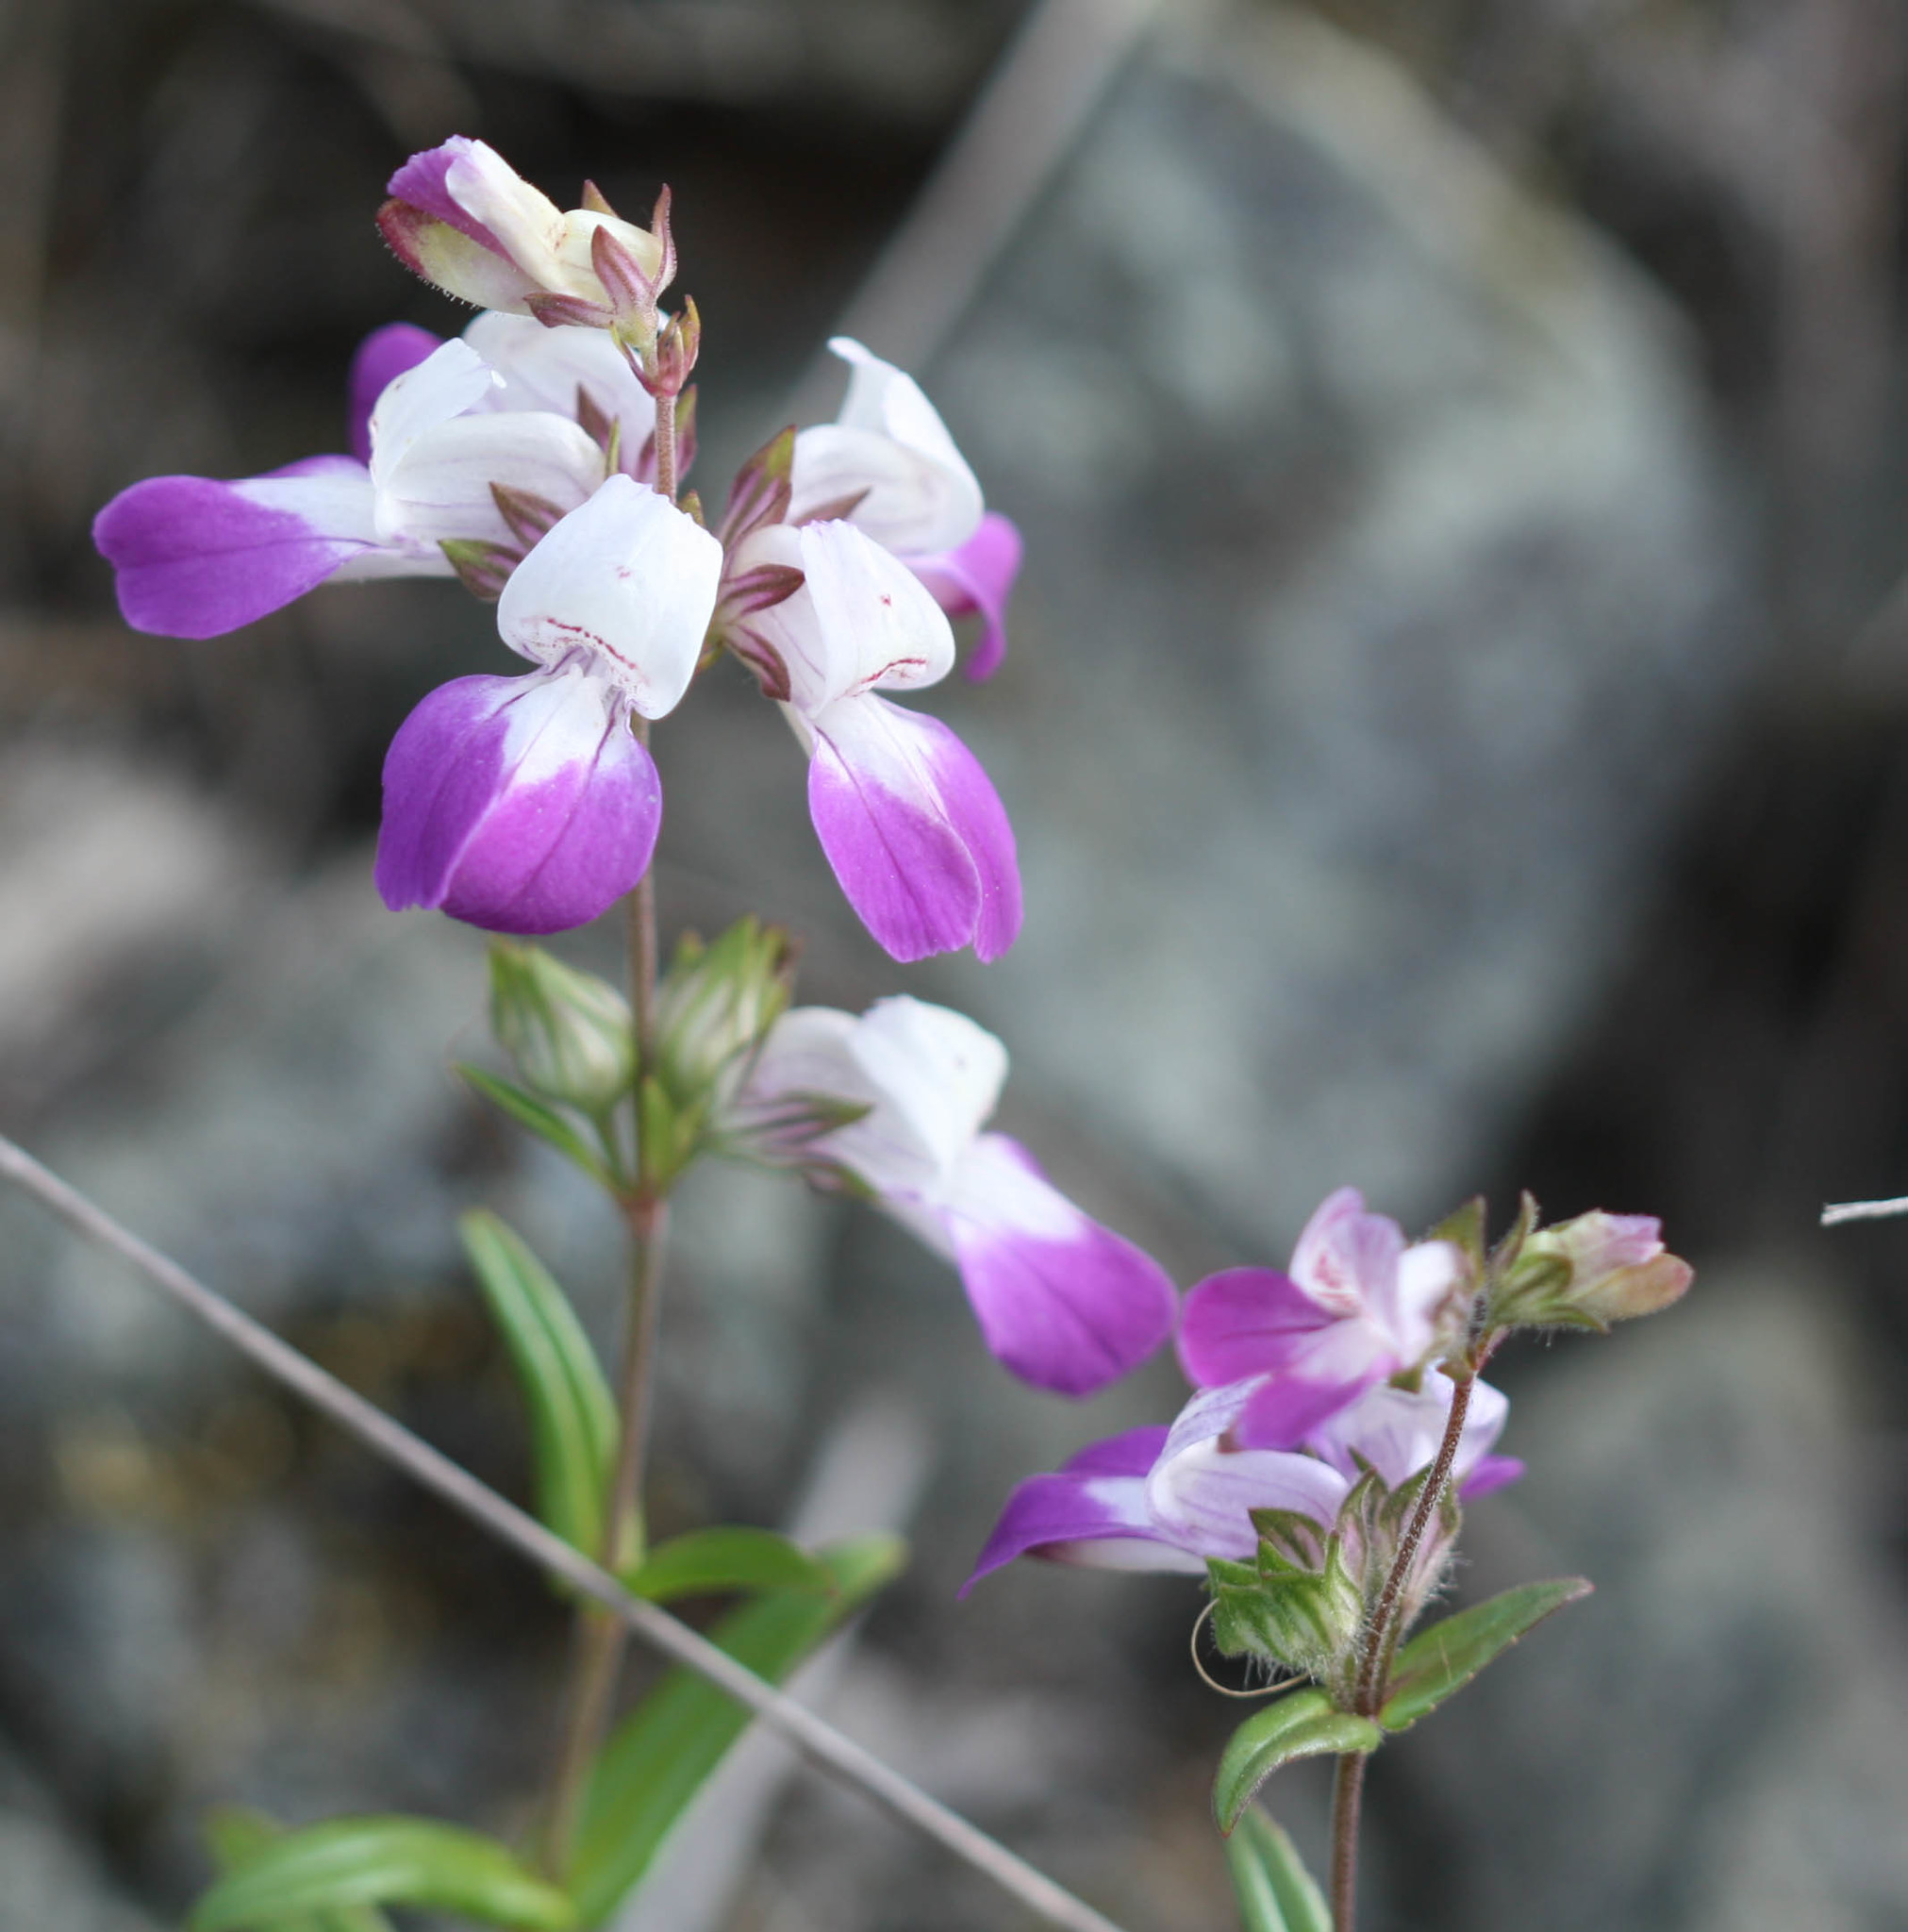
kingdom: Plantae
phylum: Tracheophyta
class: Magnoliopsida
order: Lamiales
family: Plantaginaceae
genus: Collinsia
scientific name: Collinsia heterophylla
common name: Chinese-houses
